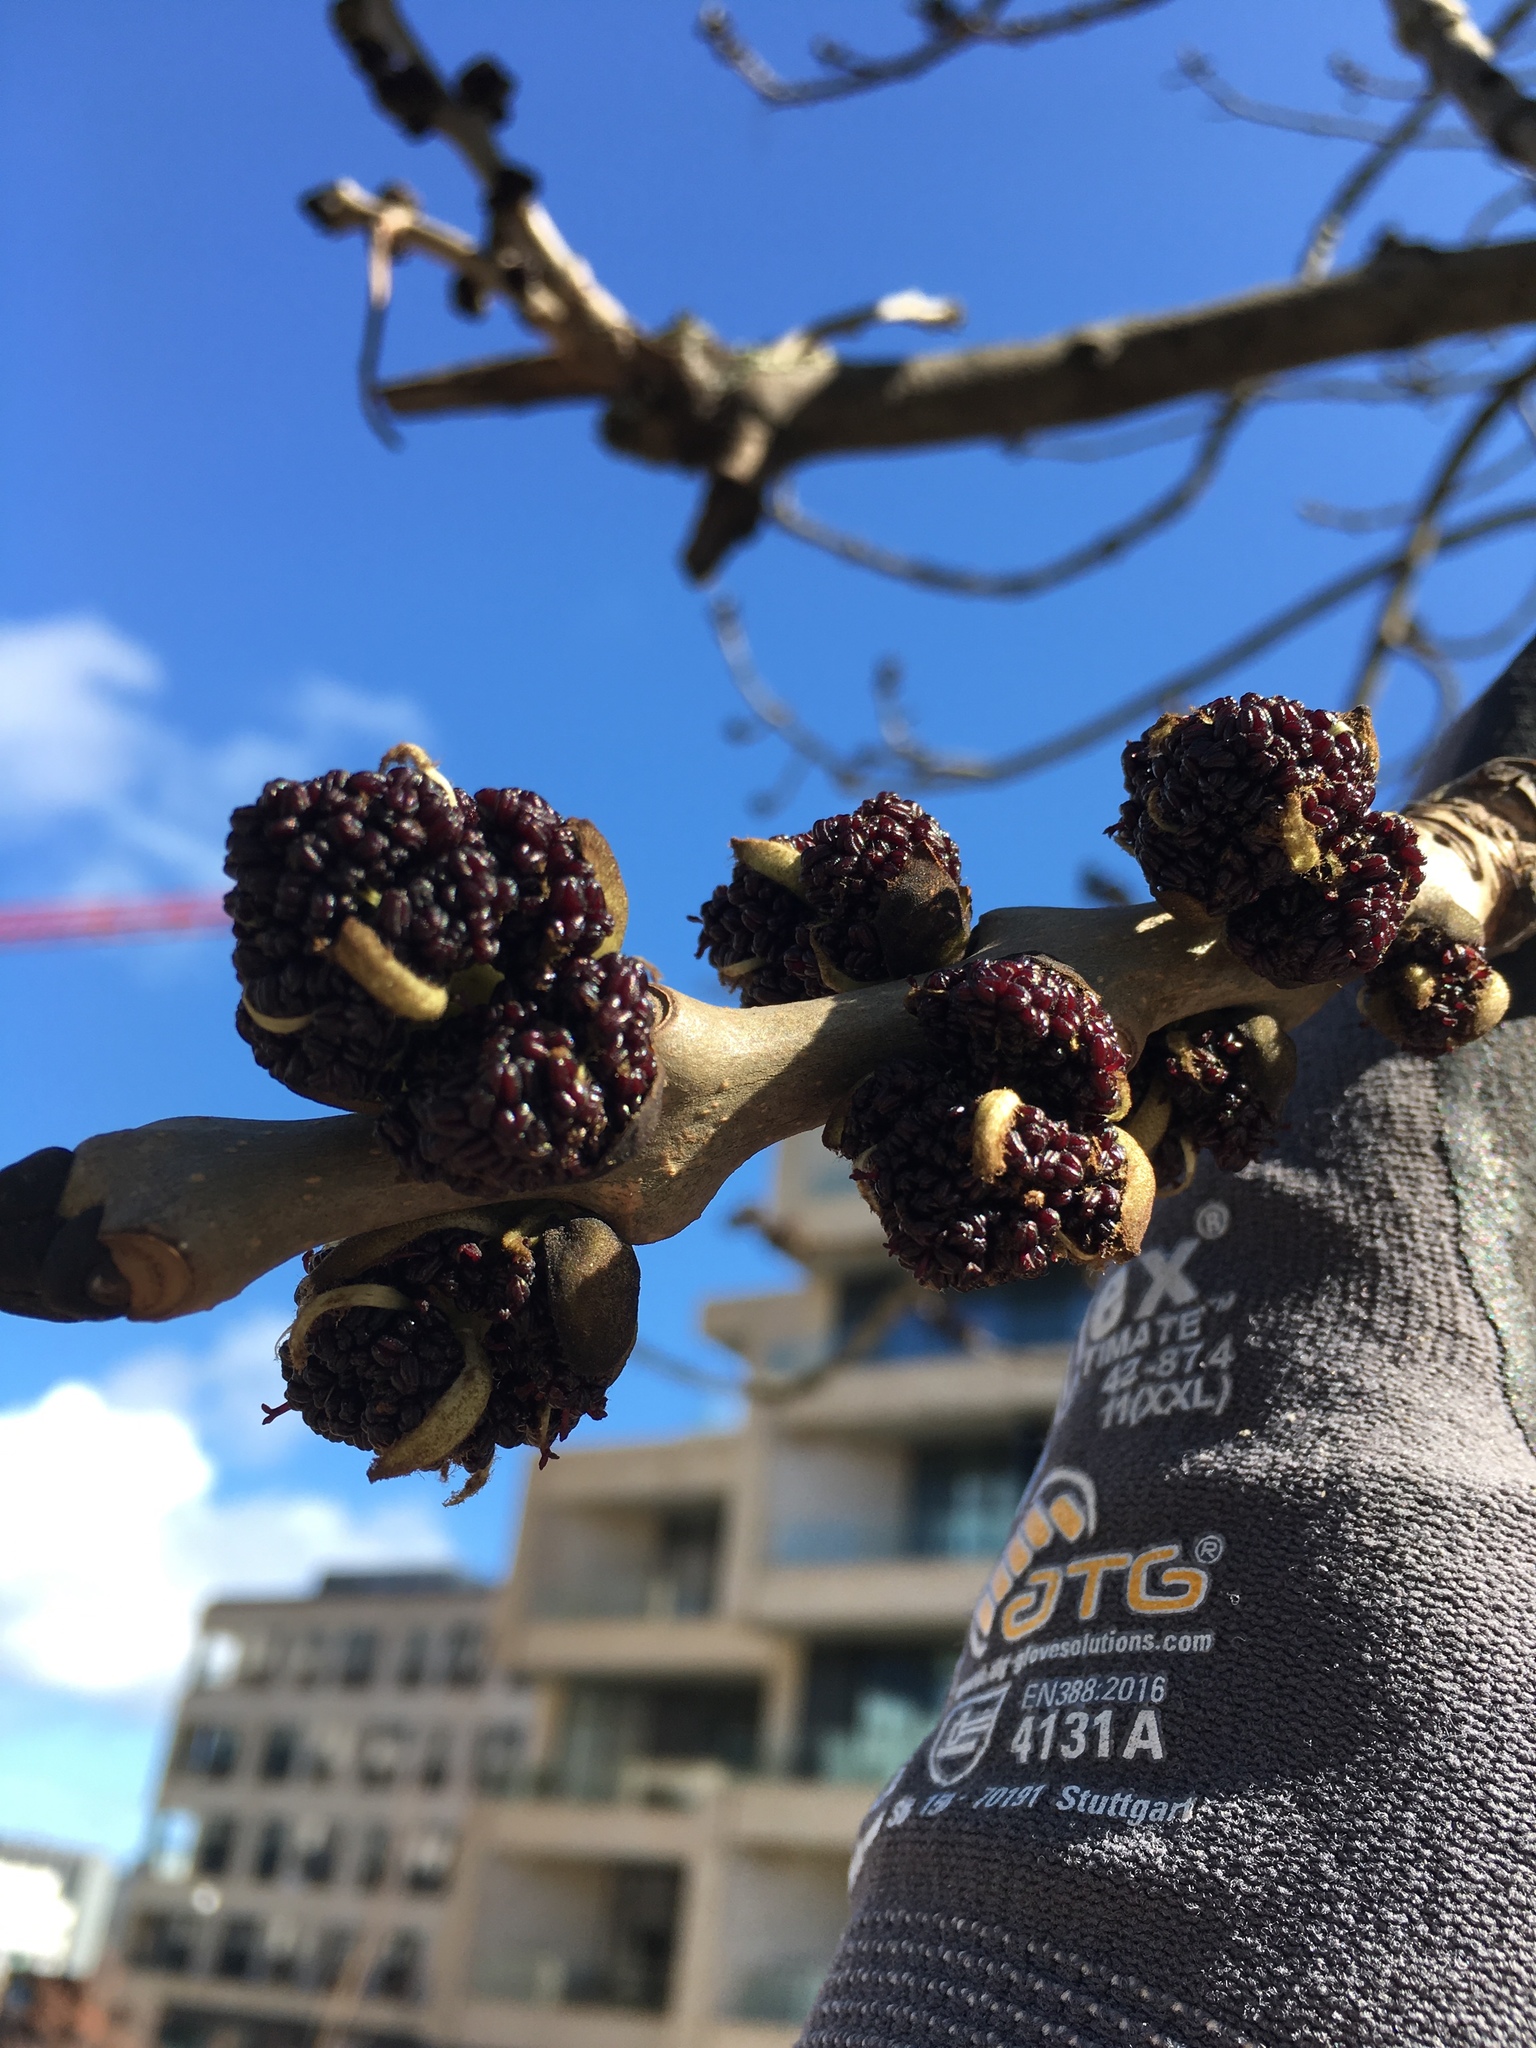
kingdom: Plantae
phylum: Tracheophyta
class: Magnoliopsida
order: Lamiales
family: Oleaceae
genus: Fraxinus
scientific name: Fraxinus excelsior
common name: European ash
